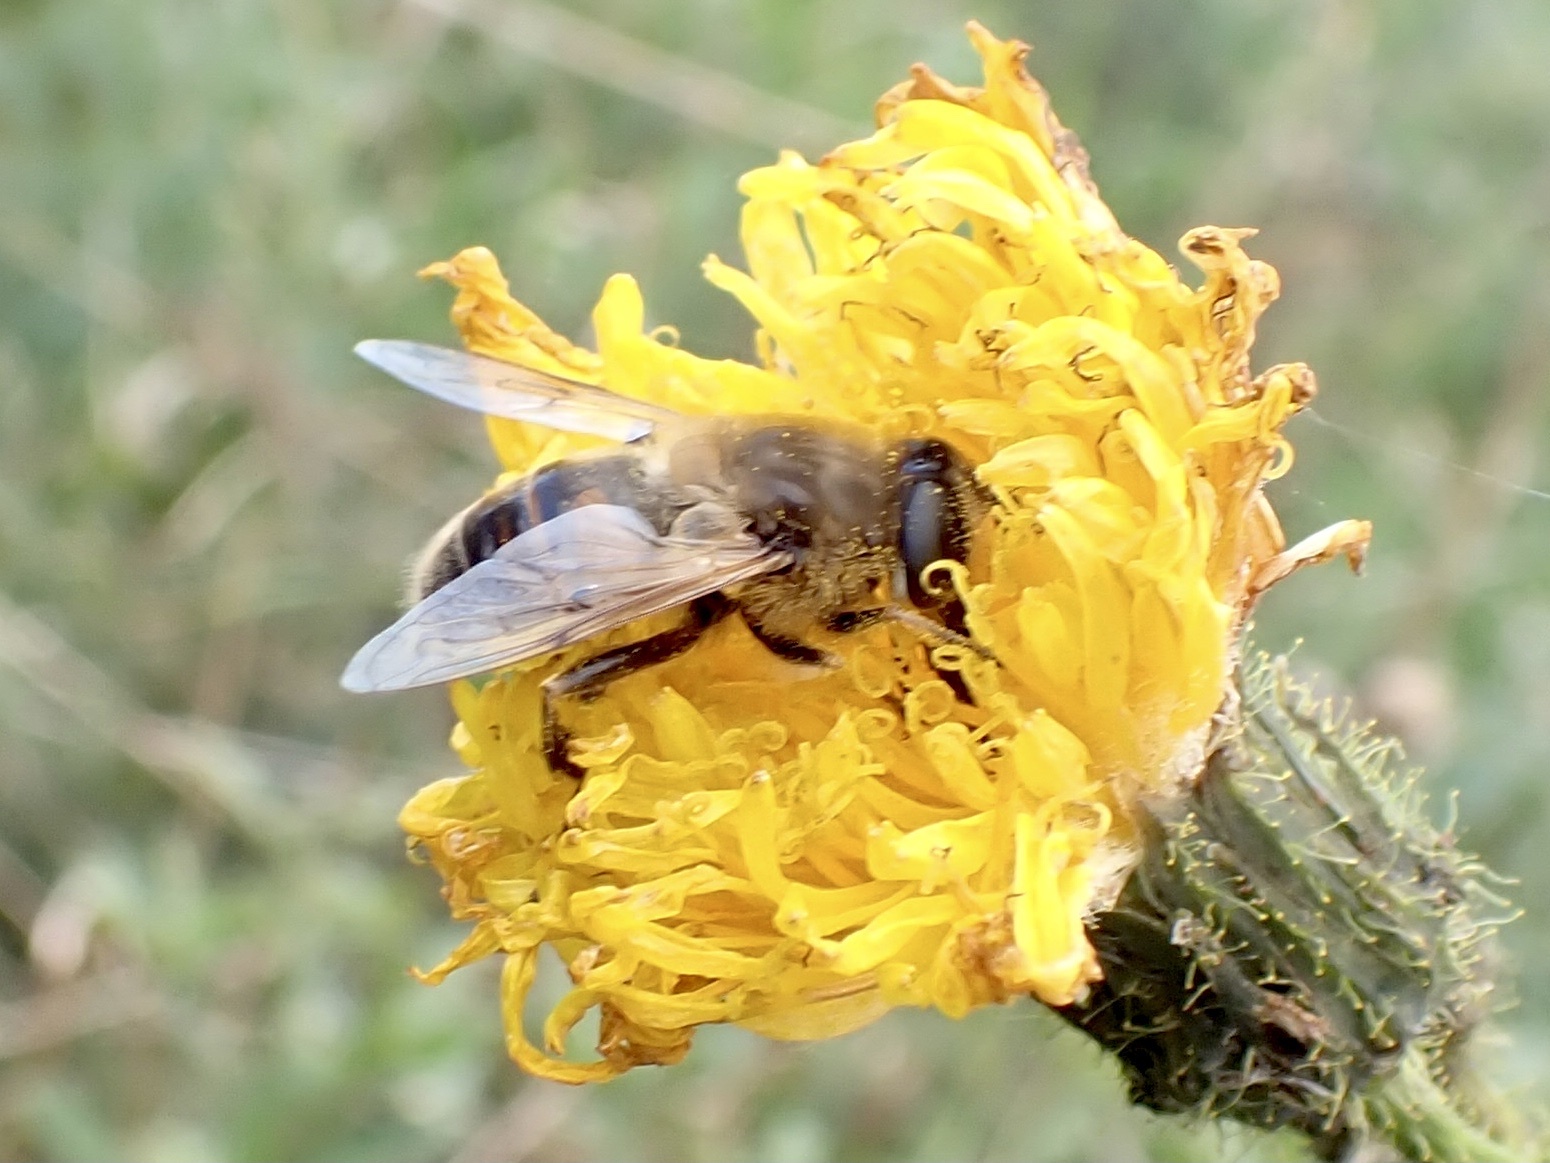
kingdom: Animalia
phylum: Arthropoda
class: Insecta
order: Diptera
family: Syrphidae
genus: Eristalis
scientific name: Eristalis tenax
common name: Drone fly
